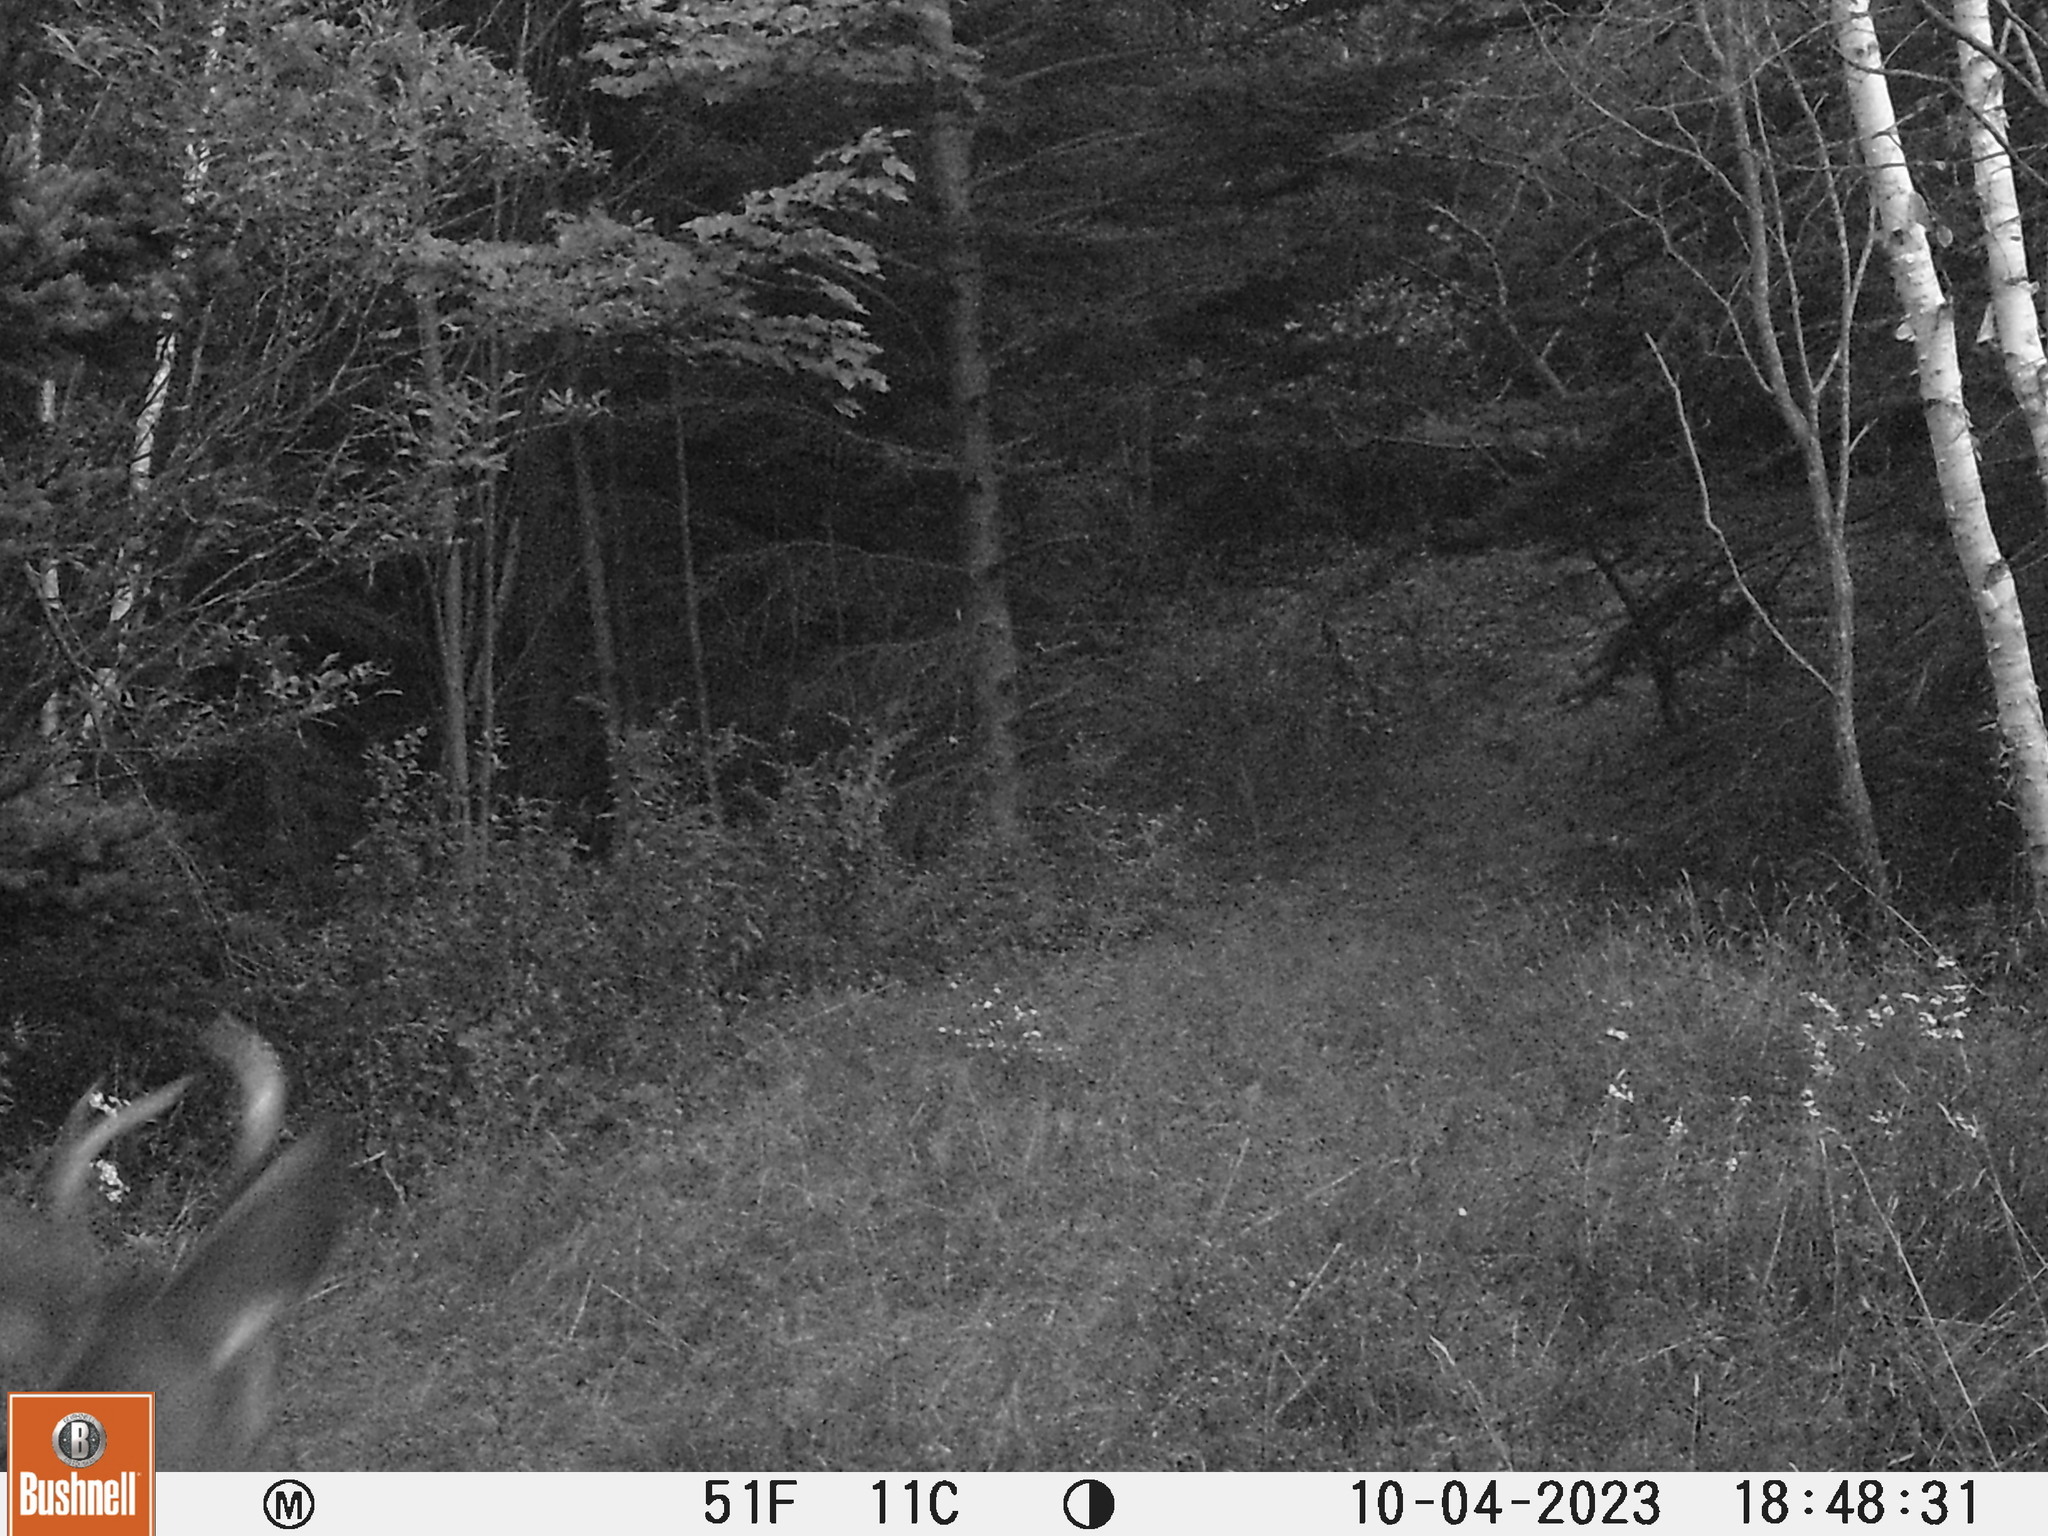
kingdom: Animalia
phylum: Chordata
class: Mammalia
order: Artiodactyla
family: Cervidae
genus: Odocoileus
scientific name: Odocoileus virginianus
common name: White-tailed deer
